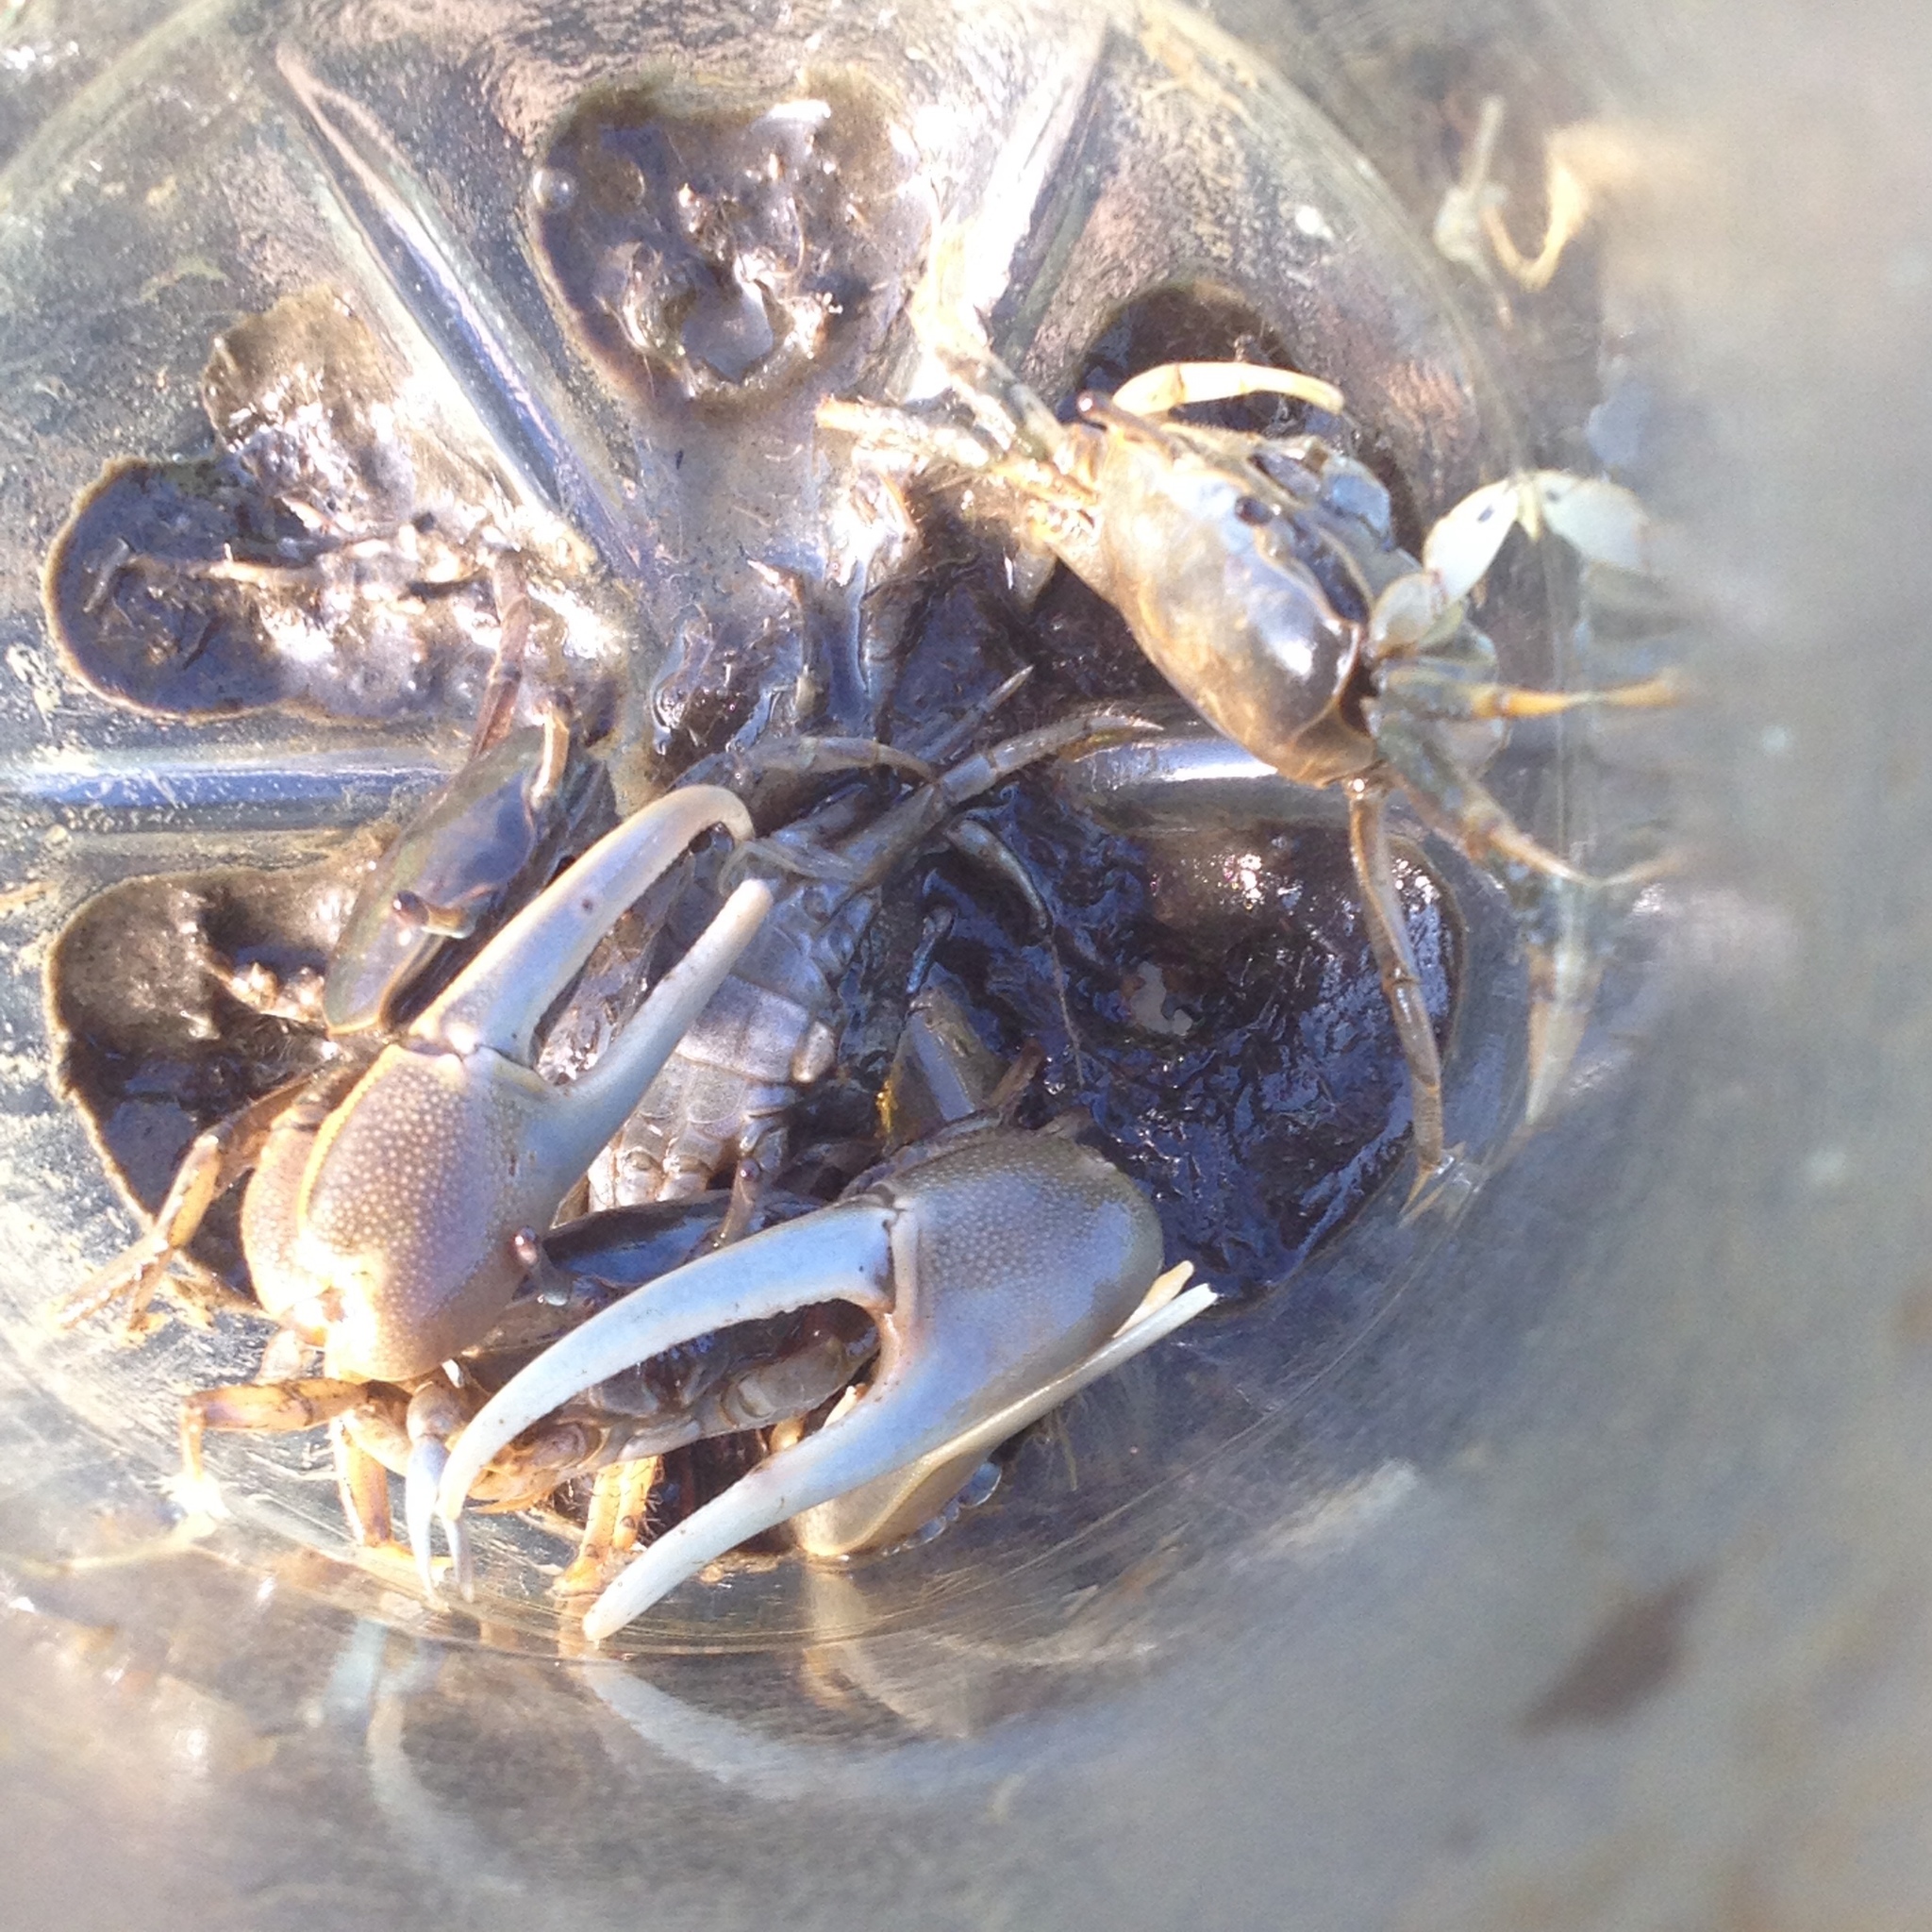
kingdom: Animalia
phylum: Arthropoda
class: Malacostraca
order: Decapoda
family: Ocypodidae
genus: Minuca
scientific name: Minuca pugnax
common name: Mud fiddler crab
